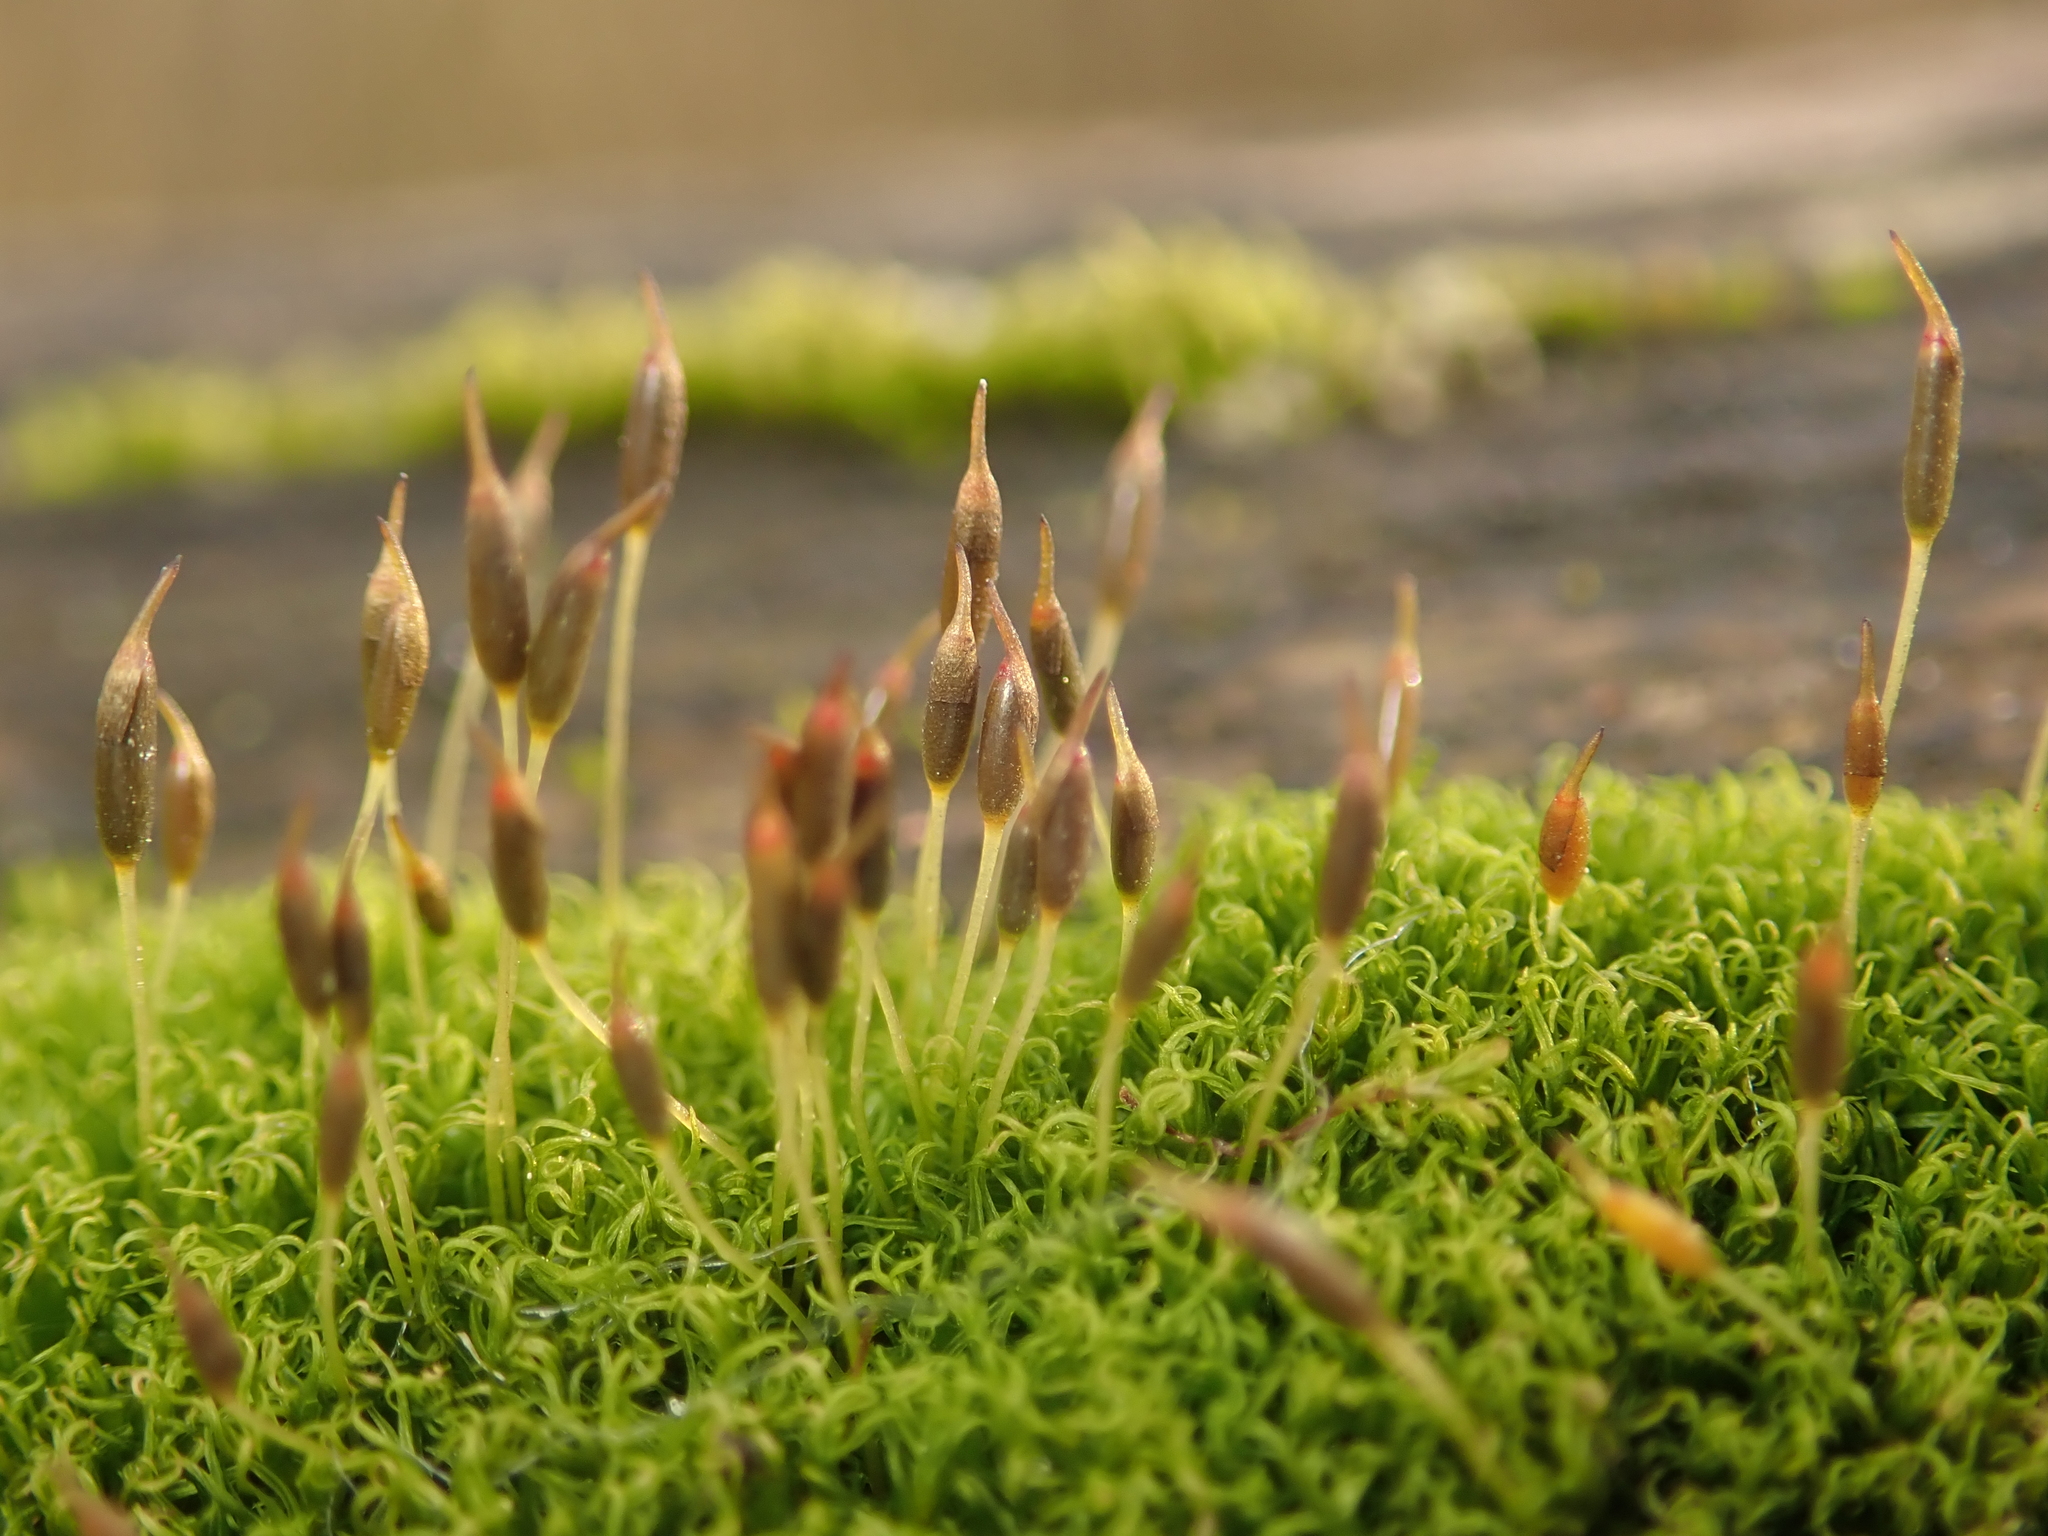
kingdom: Plantae
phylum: Bryophyta
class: Bryopsida
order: Dicranales
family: Rhabdoweisiaceae
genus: Dicranoweisia
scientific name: Dicranoweisia cirrata
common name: Common pincushion
